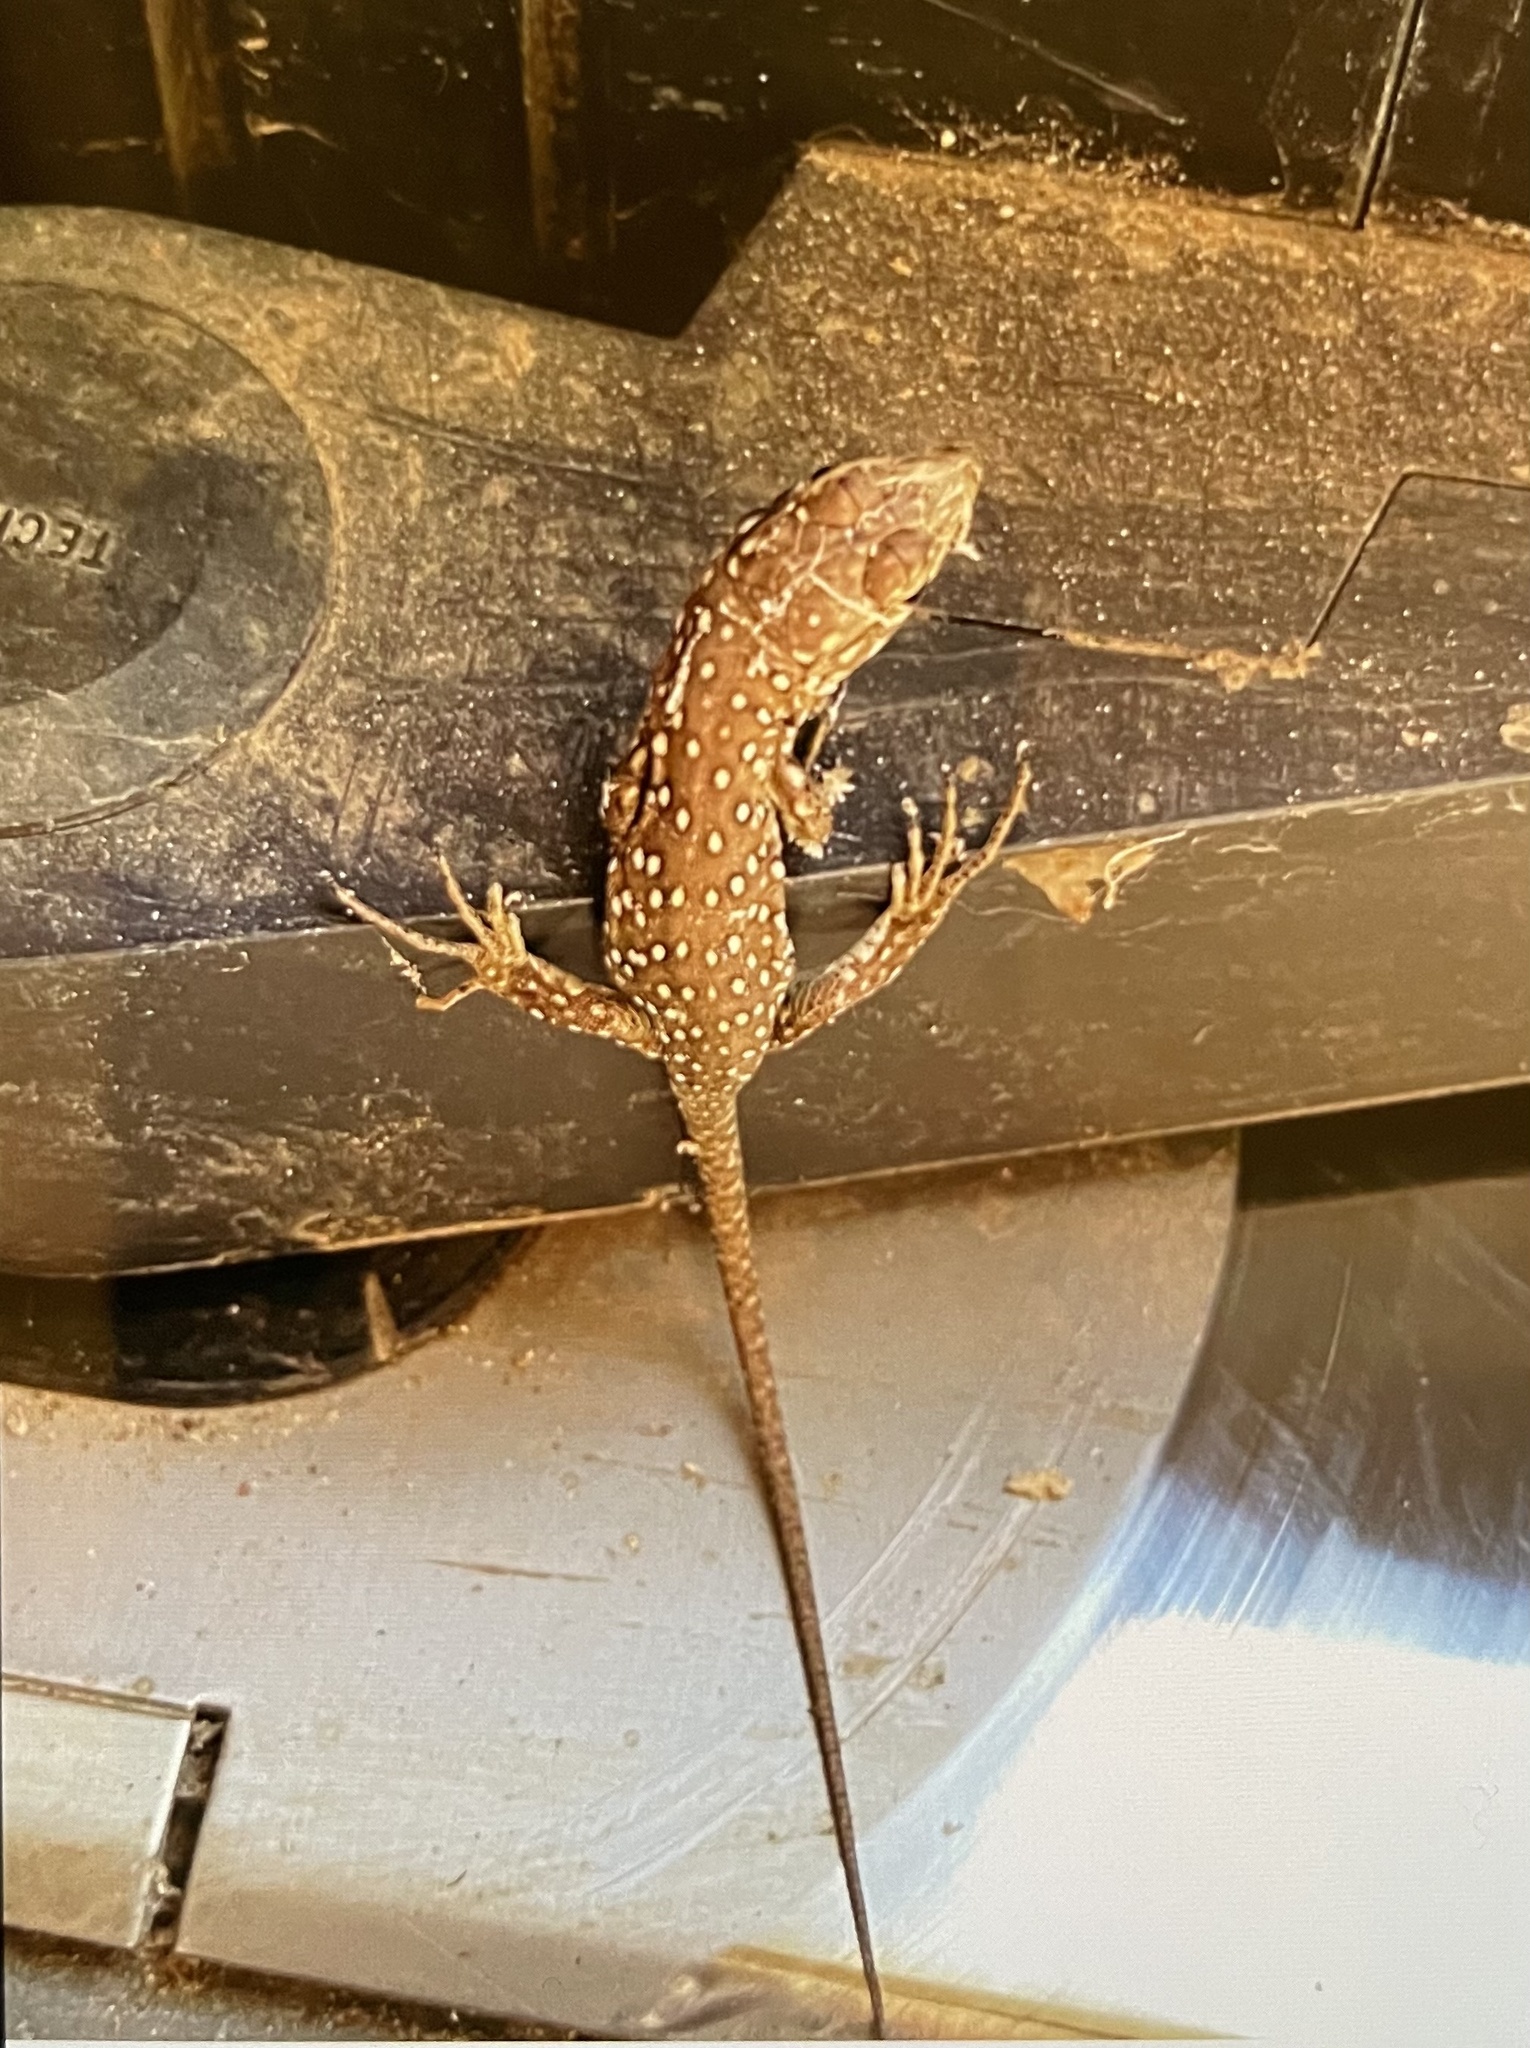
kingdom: Animalia
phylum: Chordata
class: Squamata
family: Lacertidae
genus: Timon
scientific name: Timon lepidus
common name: Ocellated lizard
